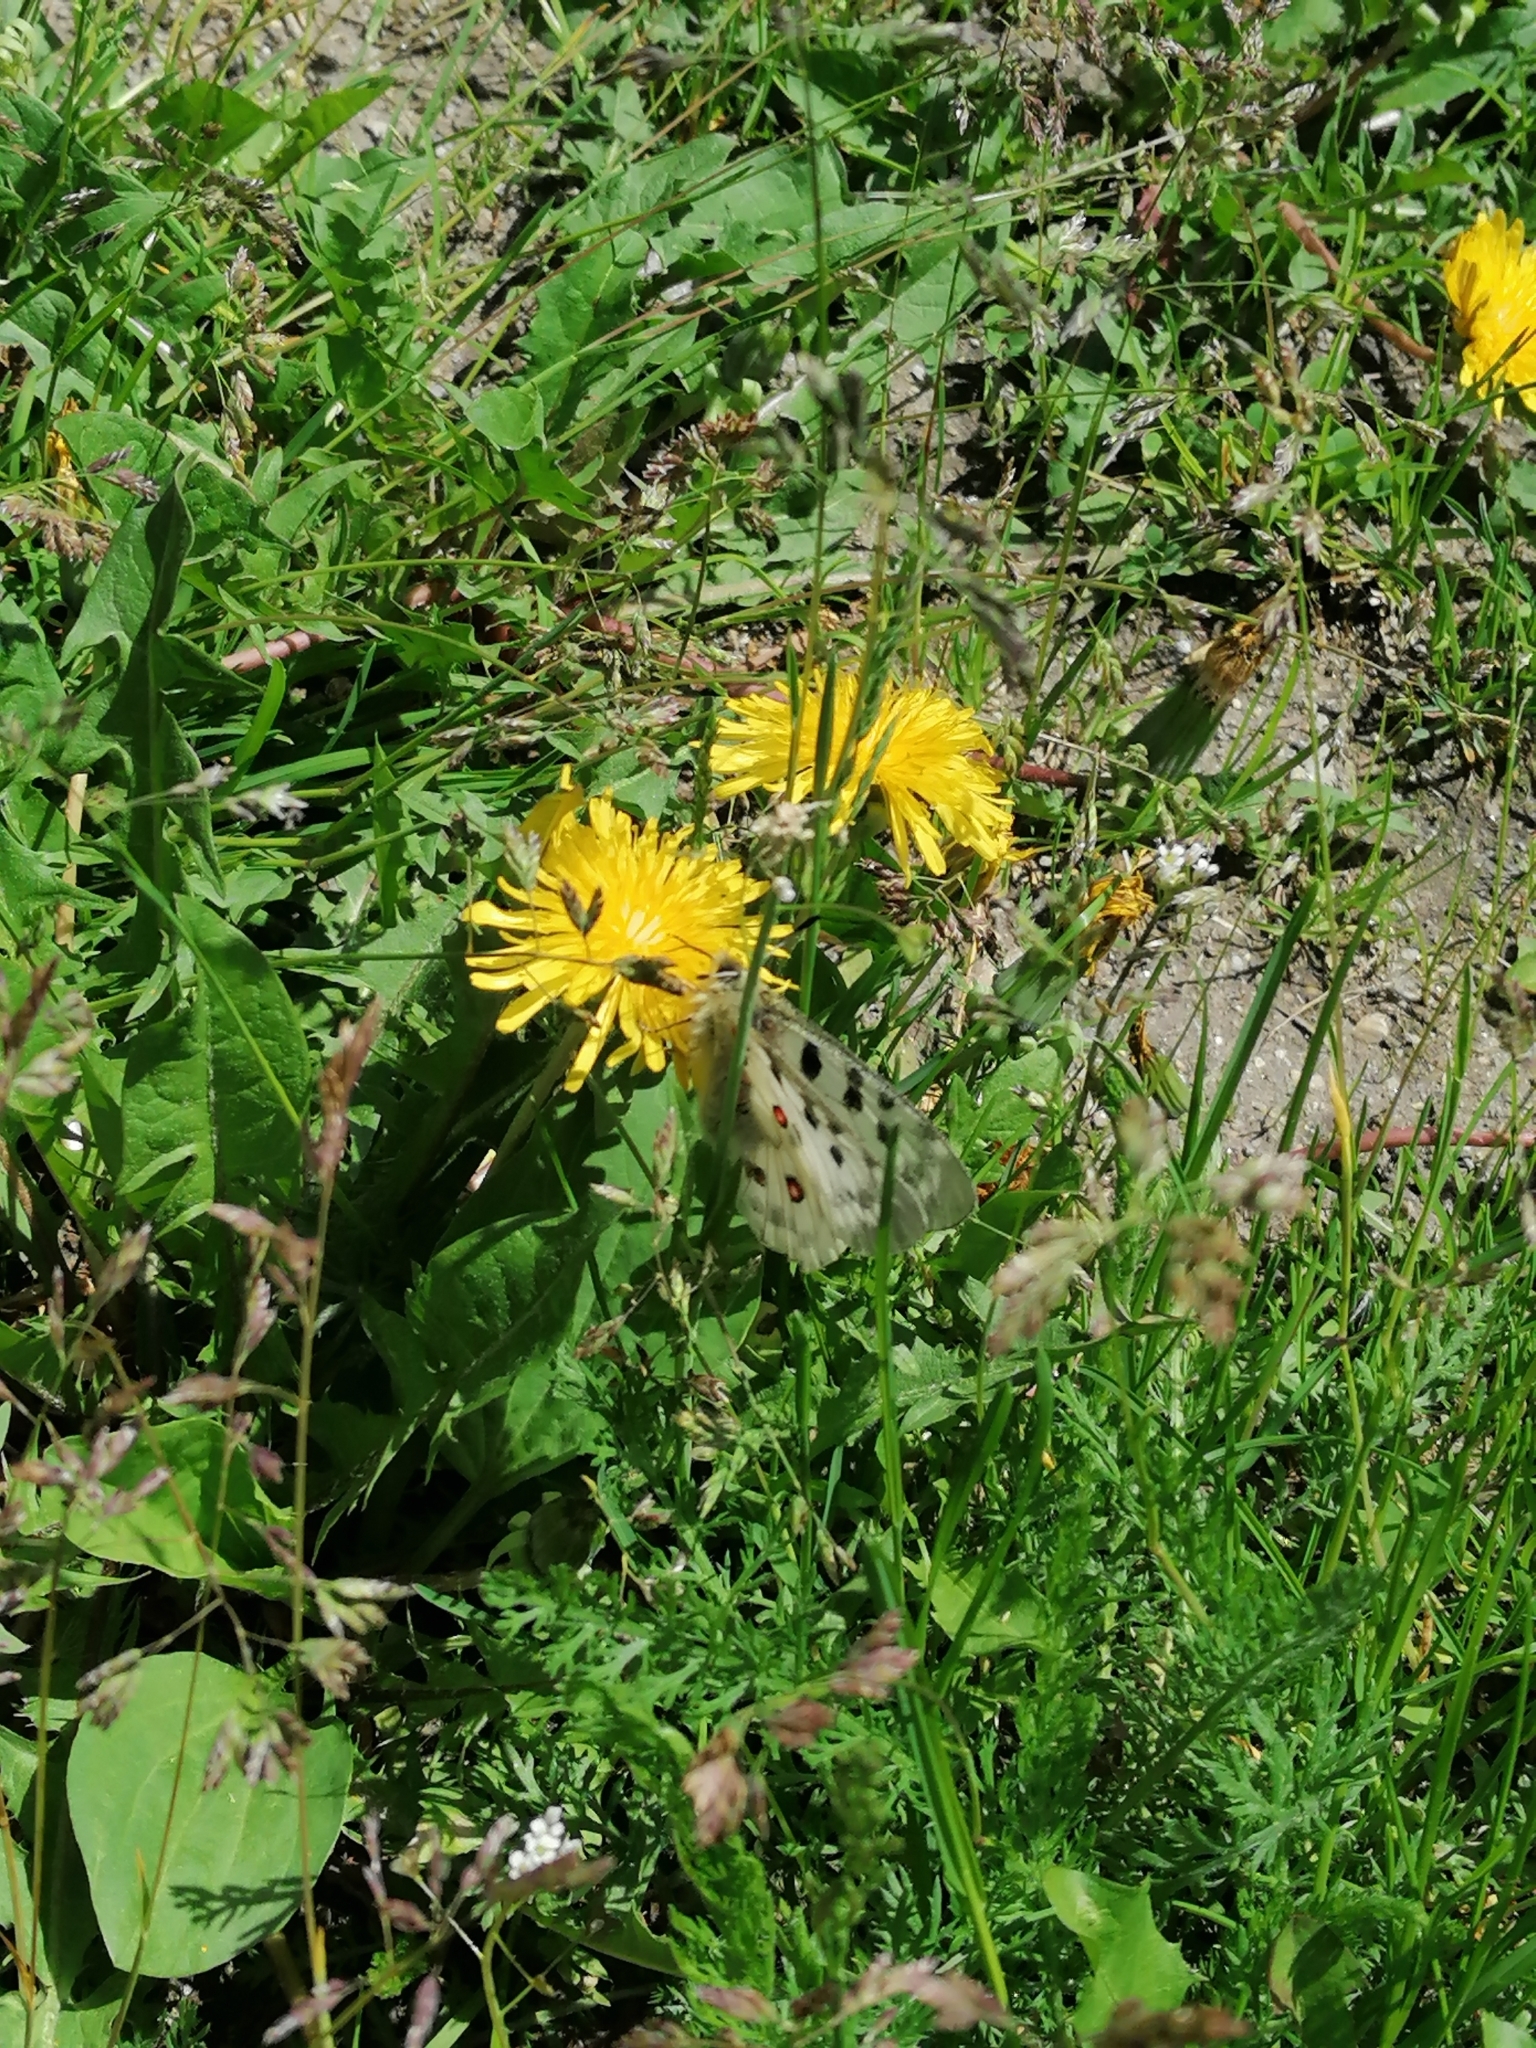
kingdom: Animalia
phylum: Arthropoda
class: Insecta
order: Lepidoptera
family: Papilionidae
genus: Parnassius
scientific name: Parnassius apollo
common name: Apollo
